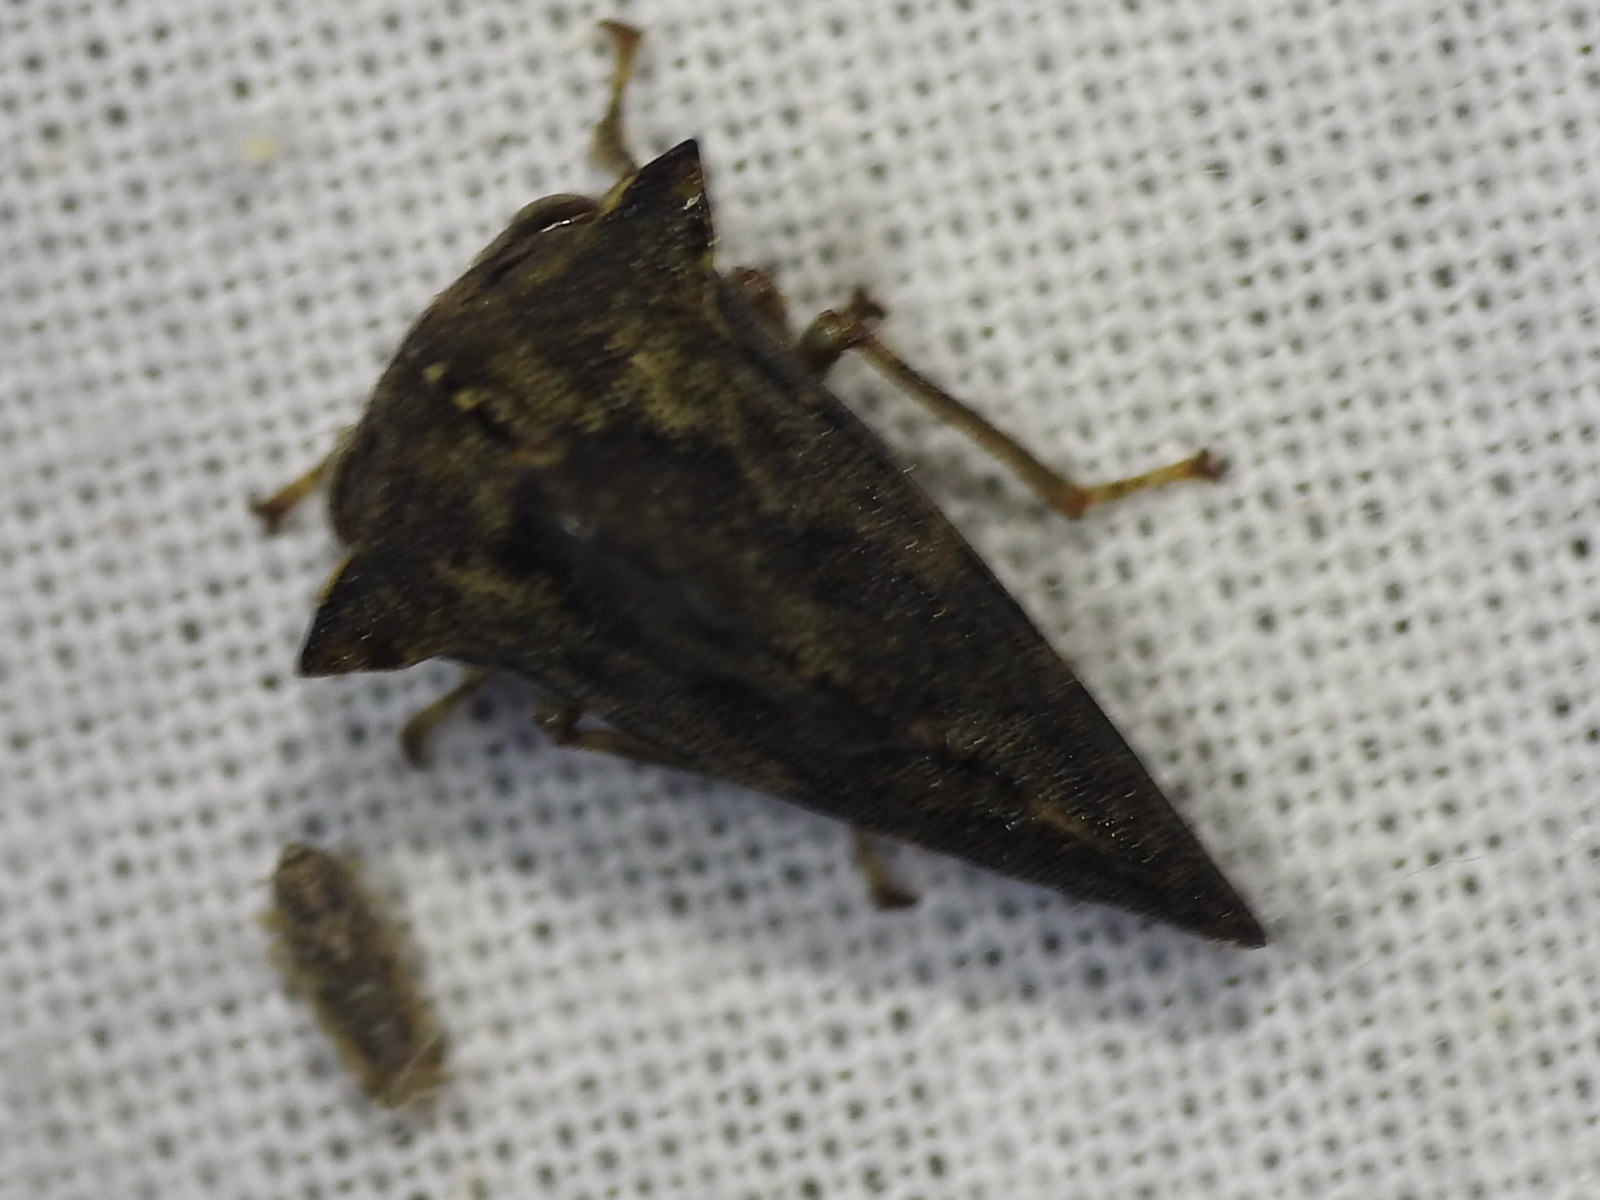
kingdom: Animalia
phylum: Arthropoda
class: Insecta
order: Hemiptera
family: Membracidae
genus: Heliria
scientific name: Heliria cristata
